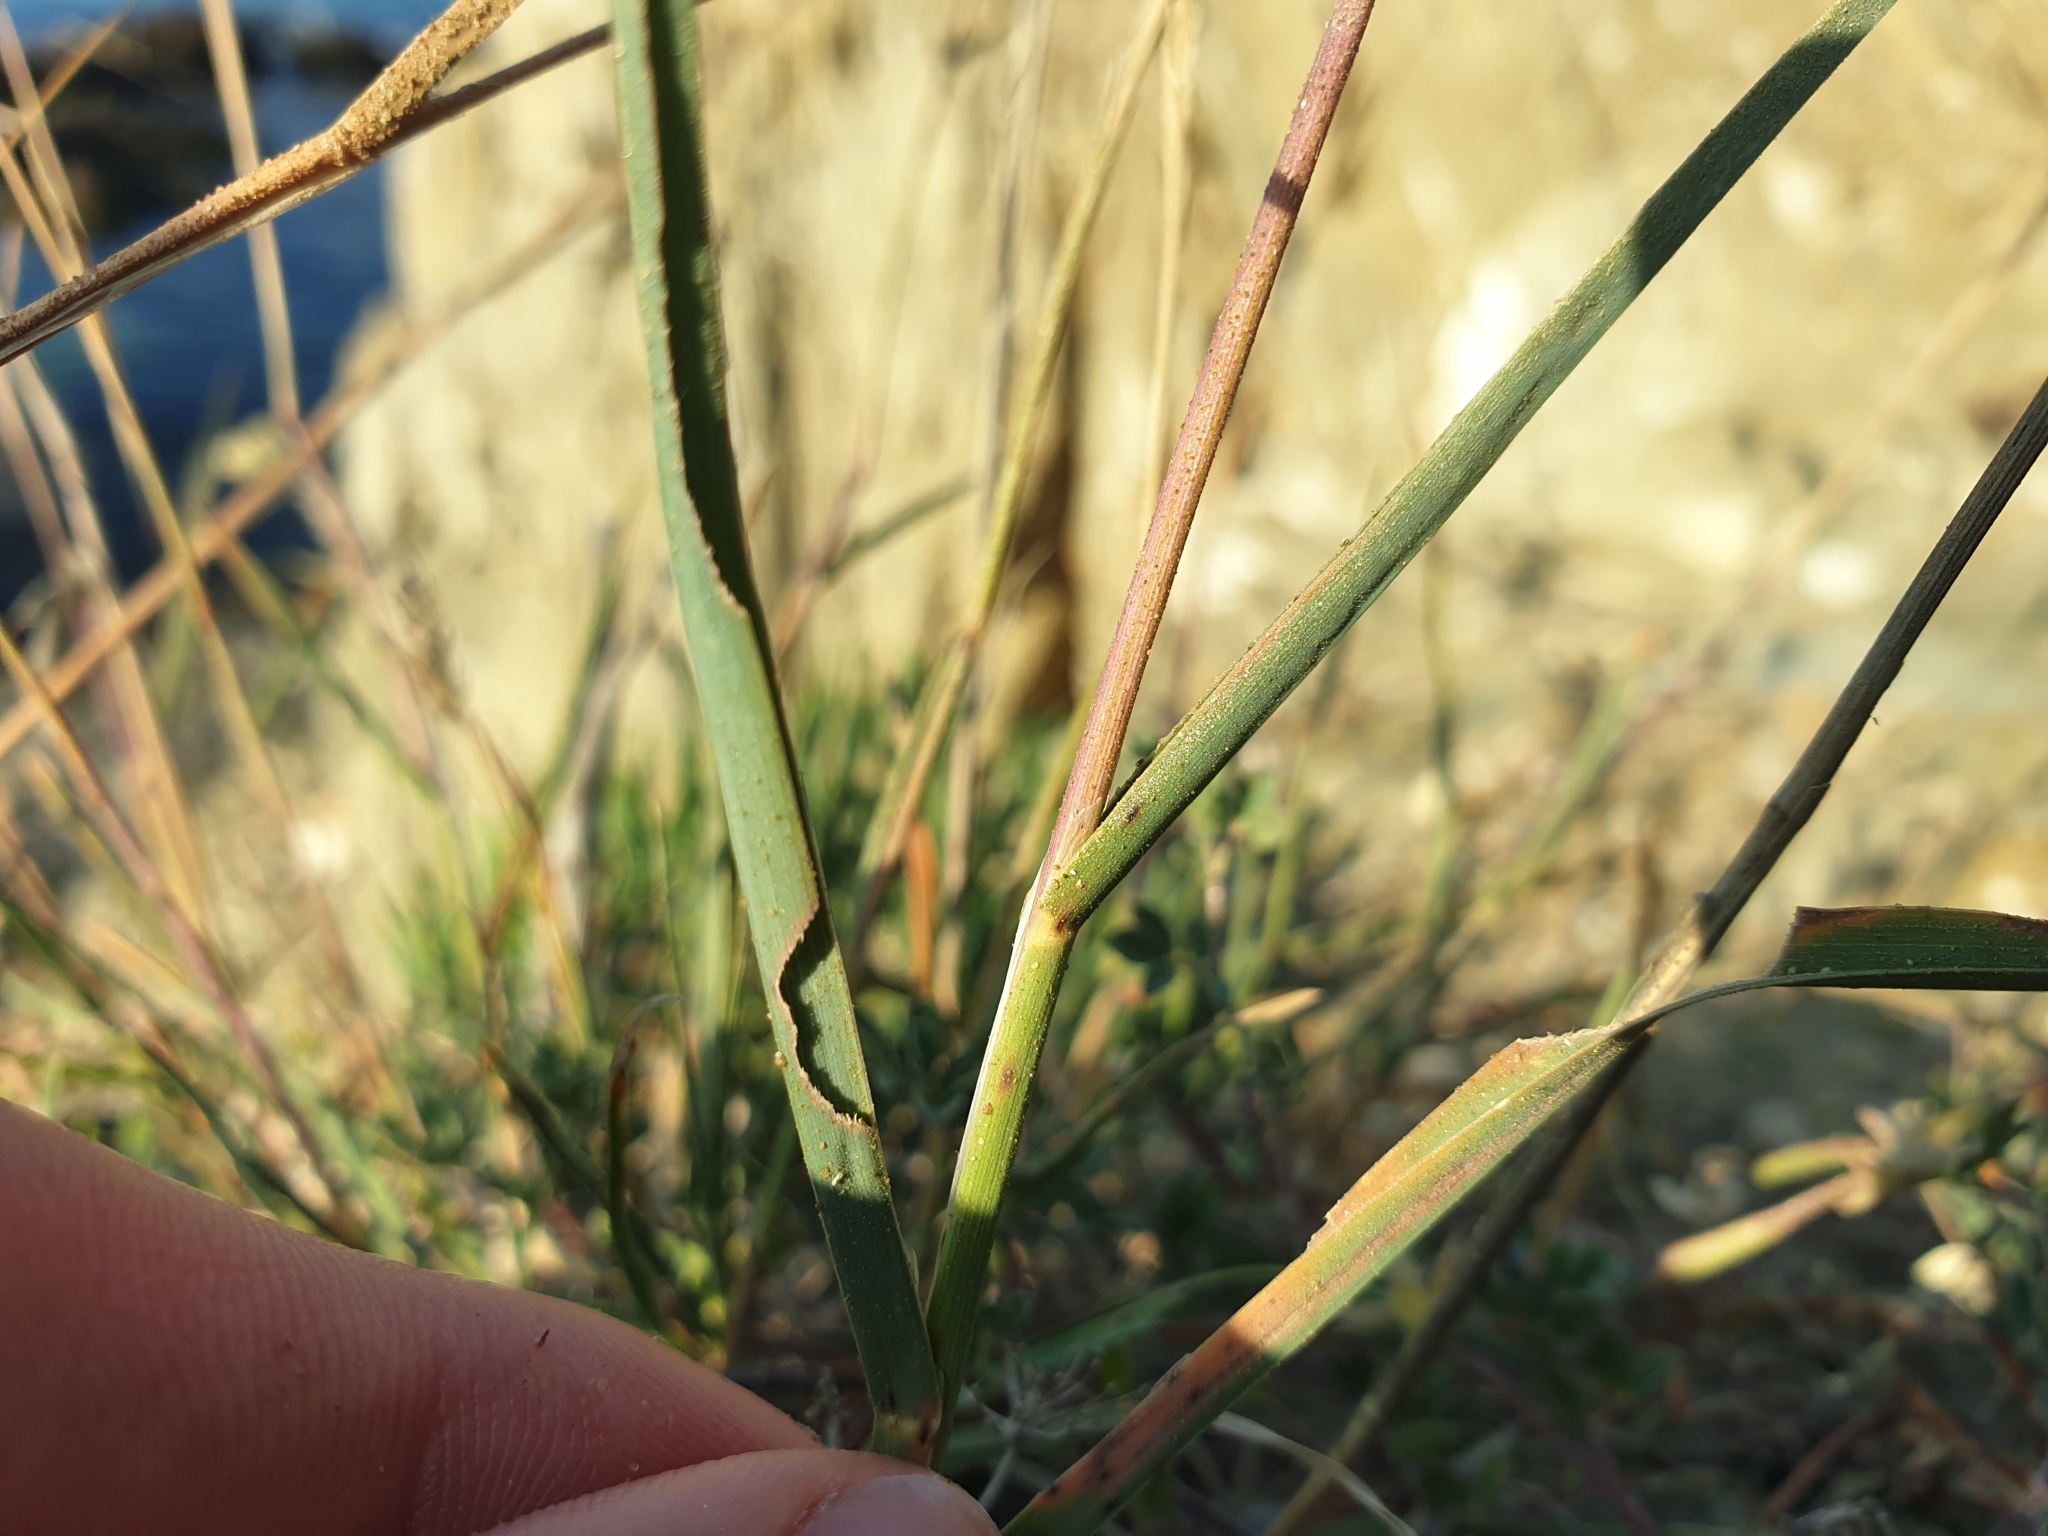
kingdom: Plantae
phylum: Tracheophyta
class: Liliopsida
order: Poales
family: Poaceae
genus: Dactylis
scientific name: Dactylis glomerata
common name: Orchardgrass
